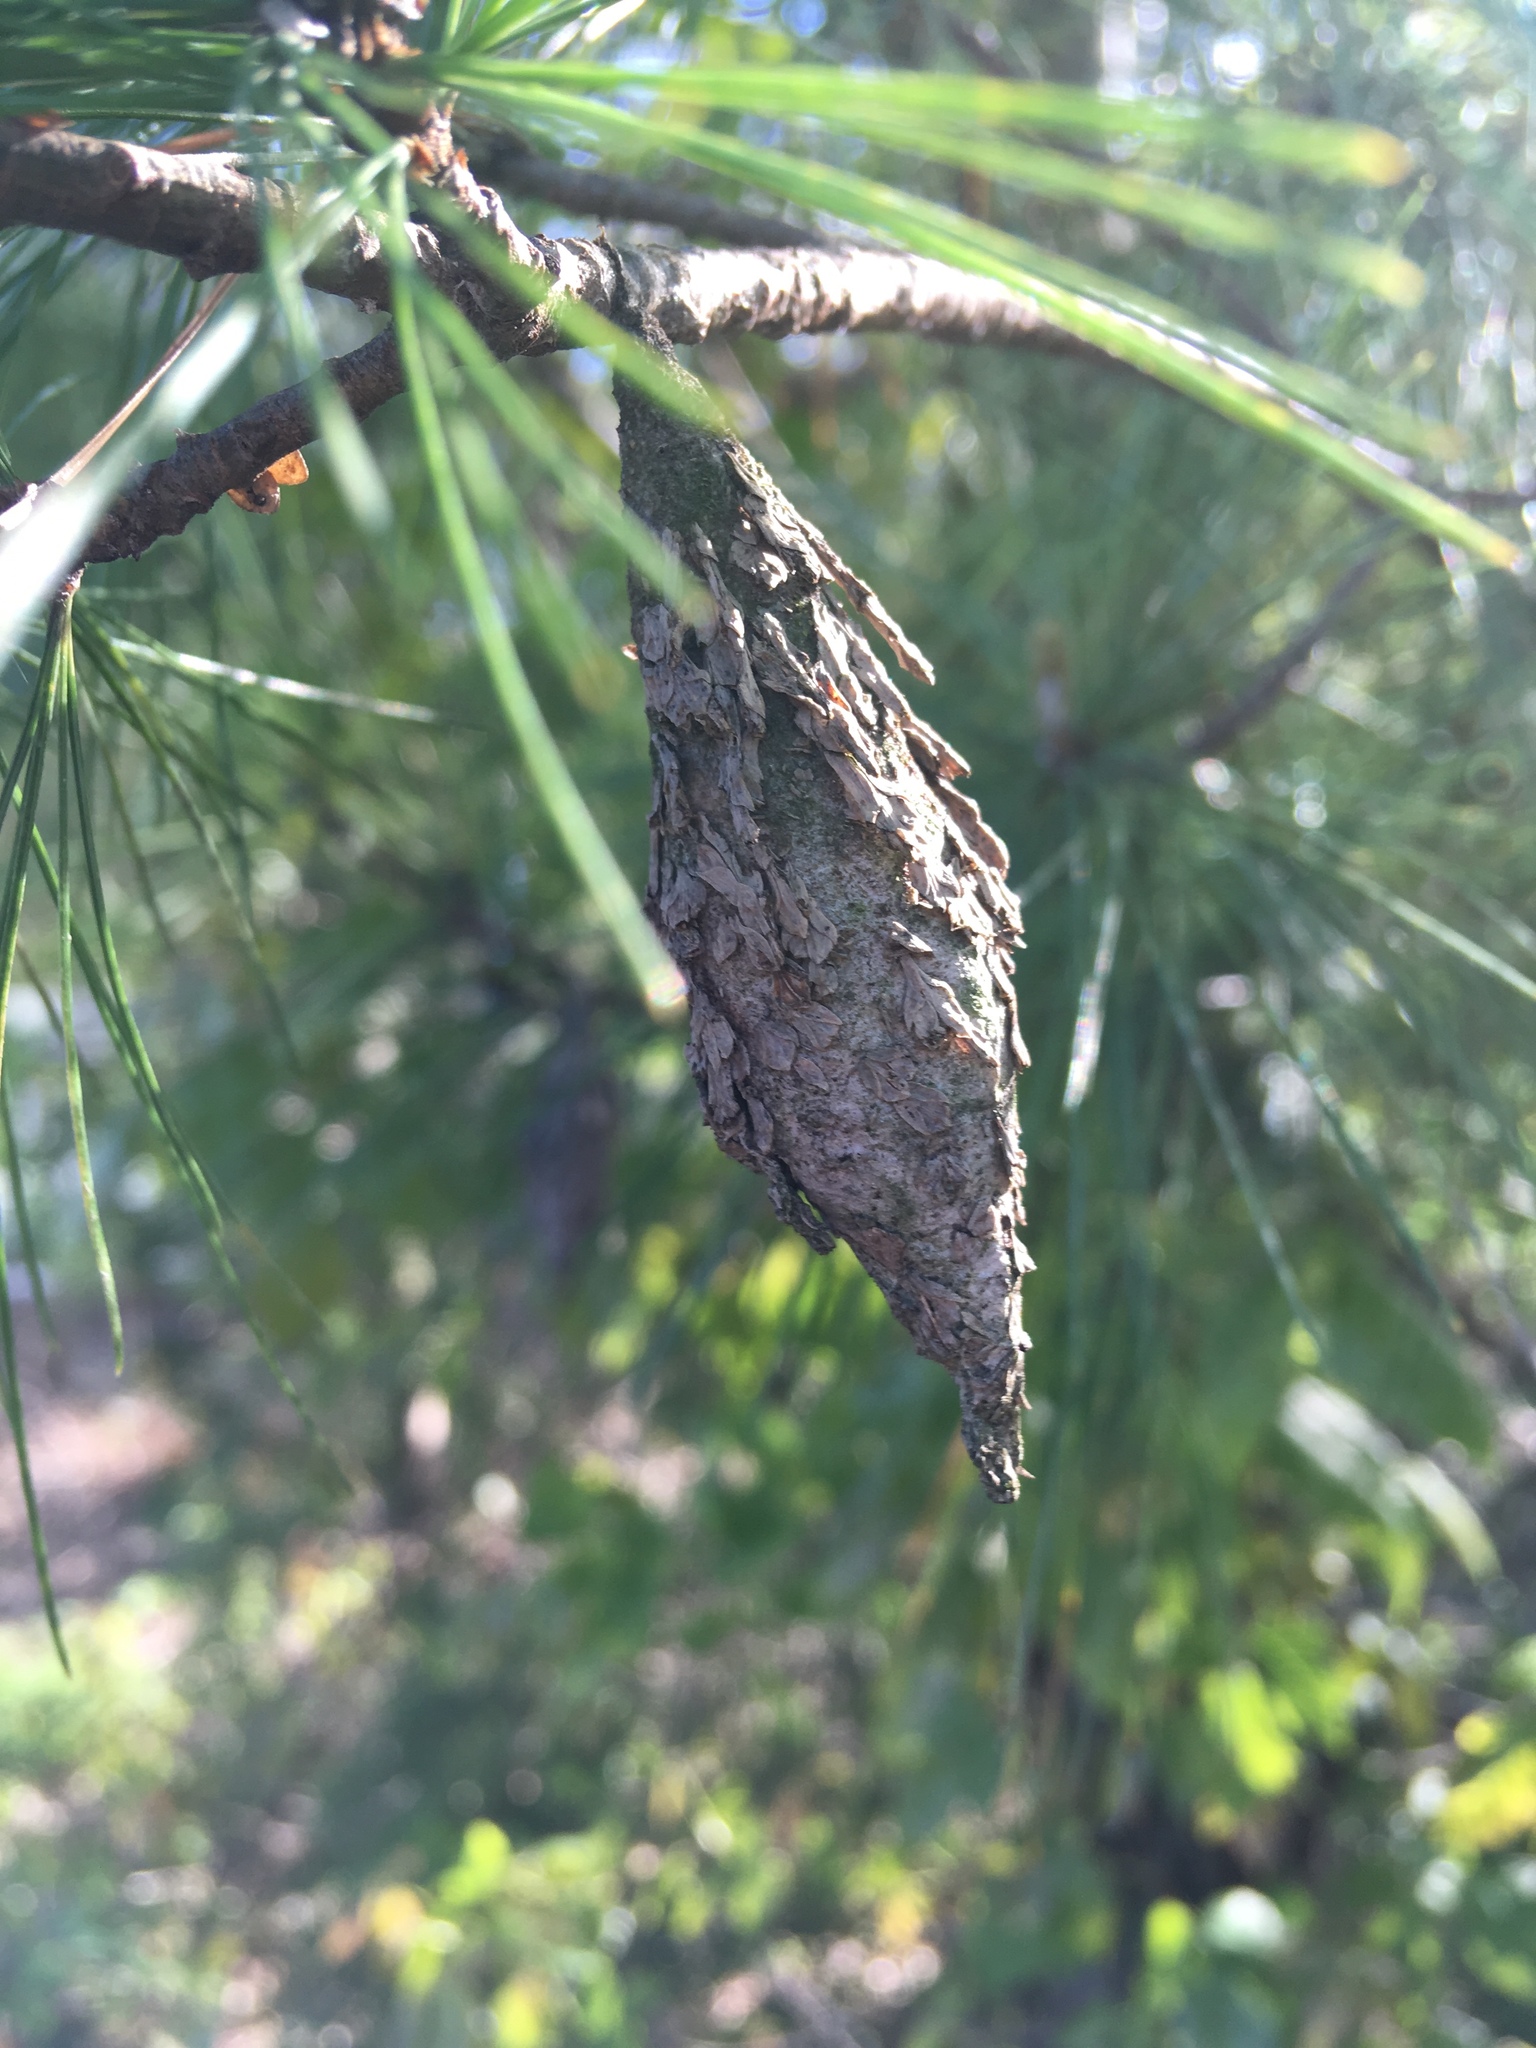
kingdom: Animalia
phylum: Arthropoda
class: Insecta
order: Lepidoptera
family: Psychidae
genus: Thyridopteryx
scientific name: Thyridopteryx ephemeraeformis
